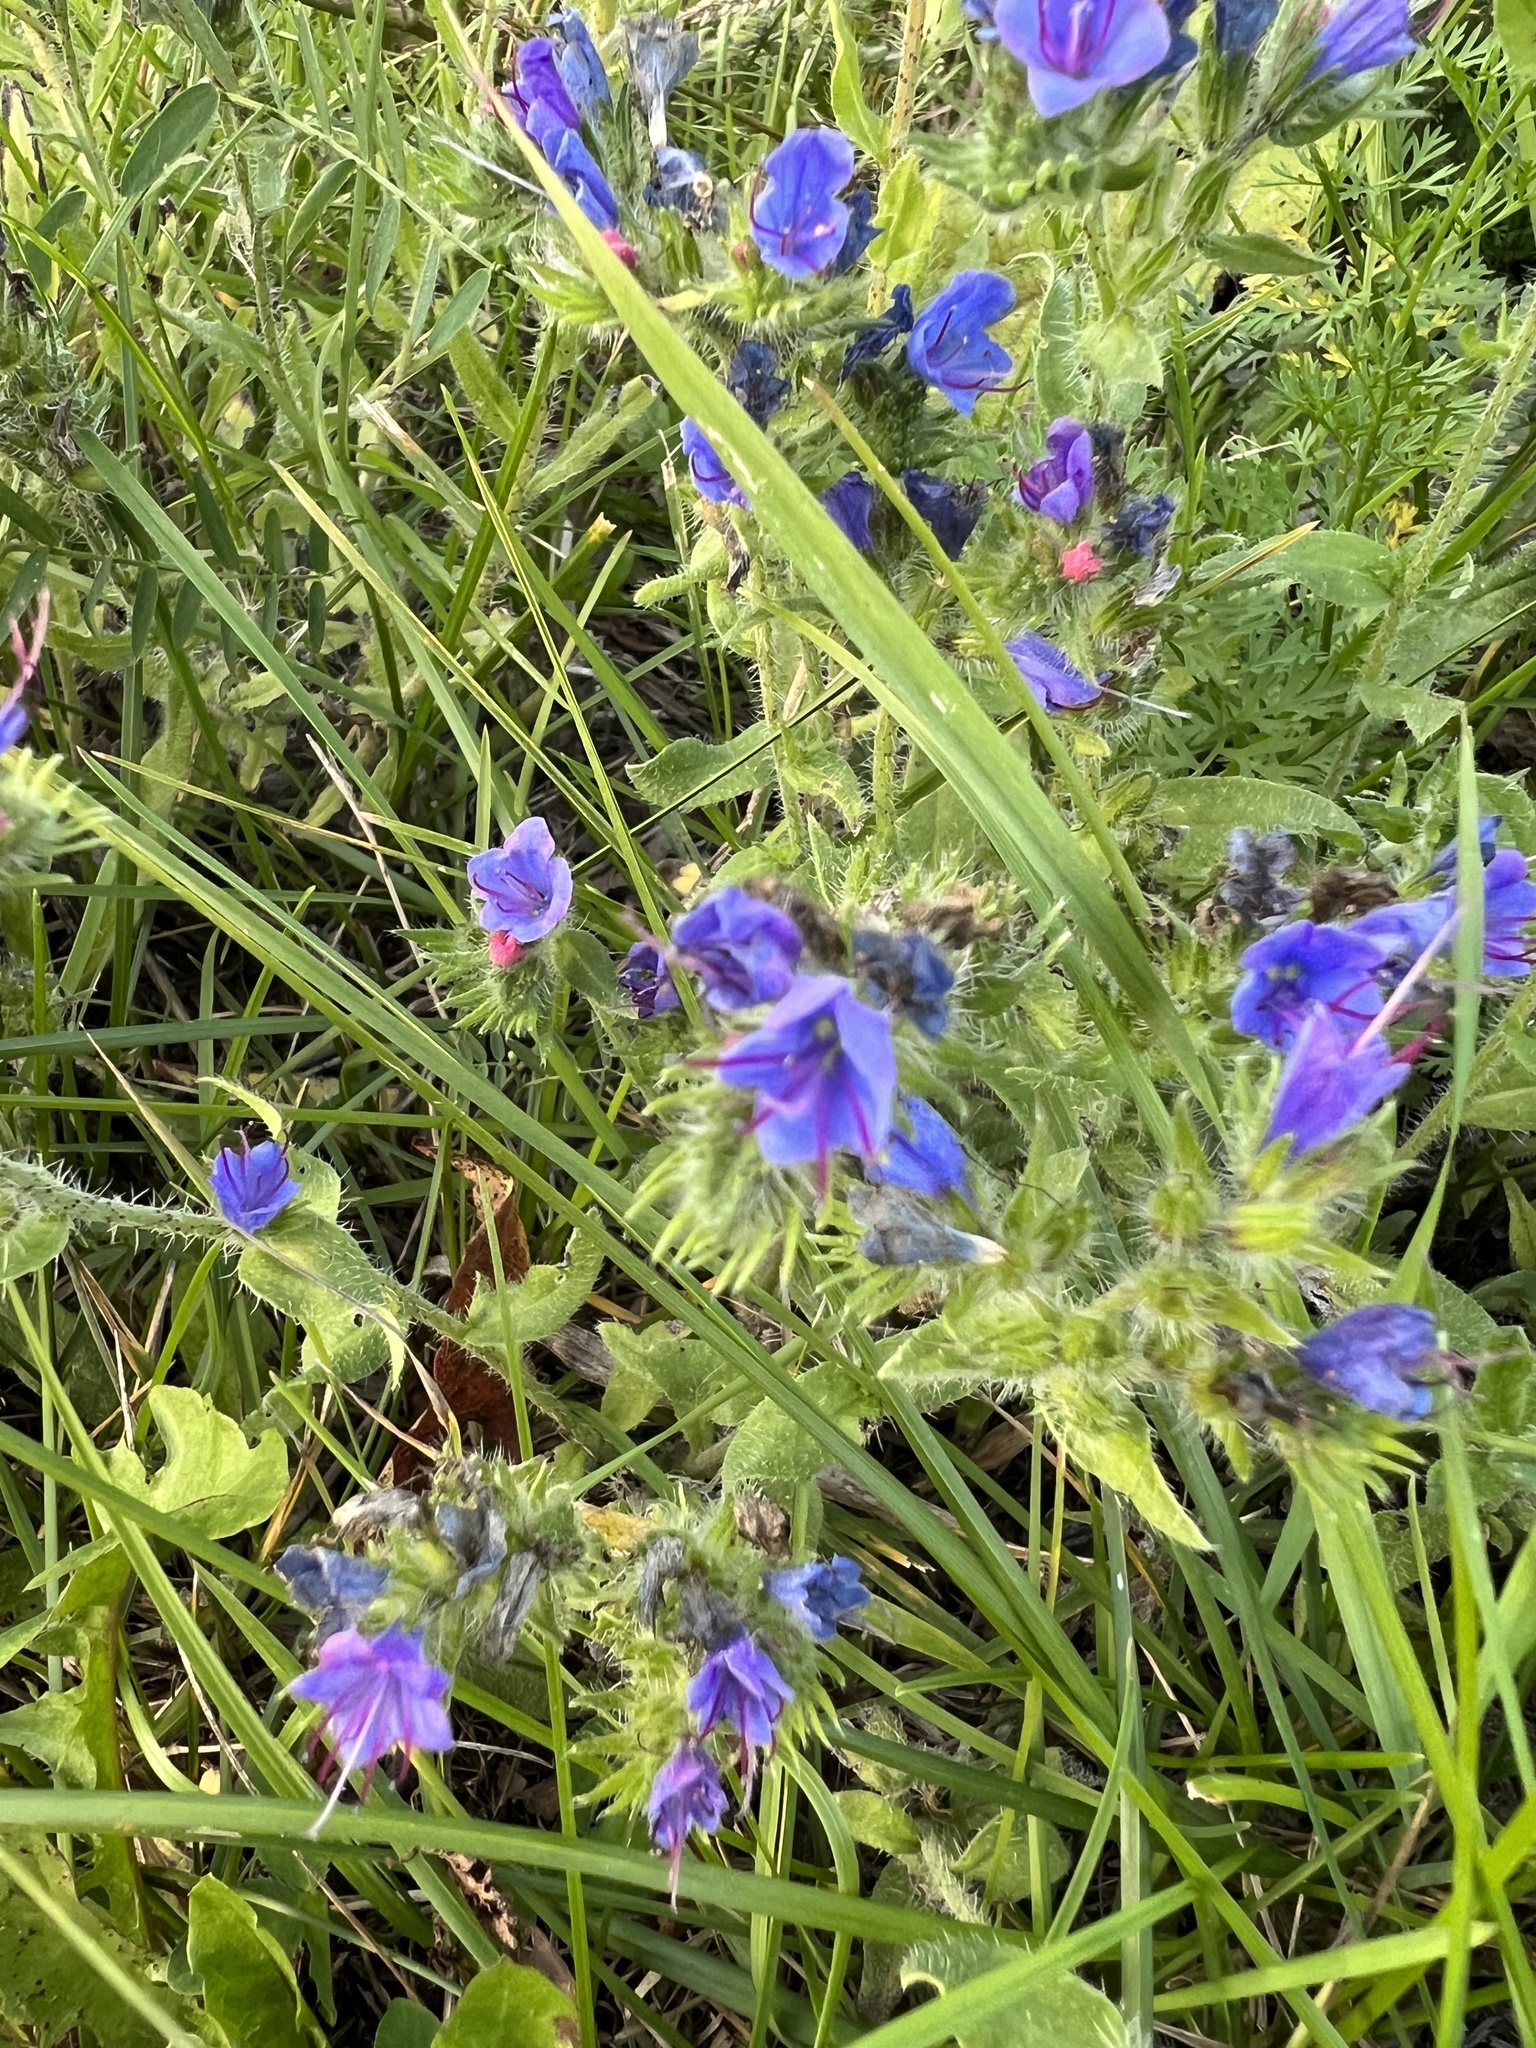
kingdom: Plantae
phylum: Tracheophyta
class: Magnoliopsida
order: Boraginales
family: Boraginaceae
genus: Echium
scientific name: Echium vulgare
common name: Common viper's bugloss
